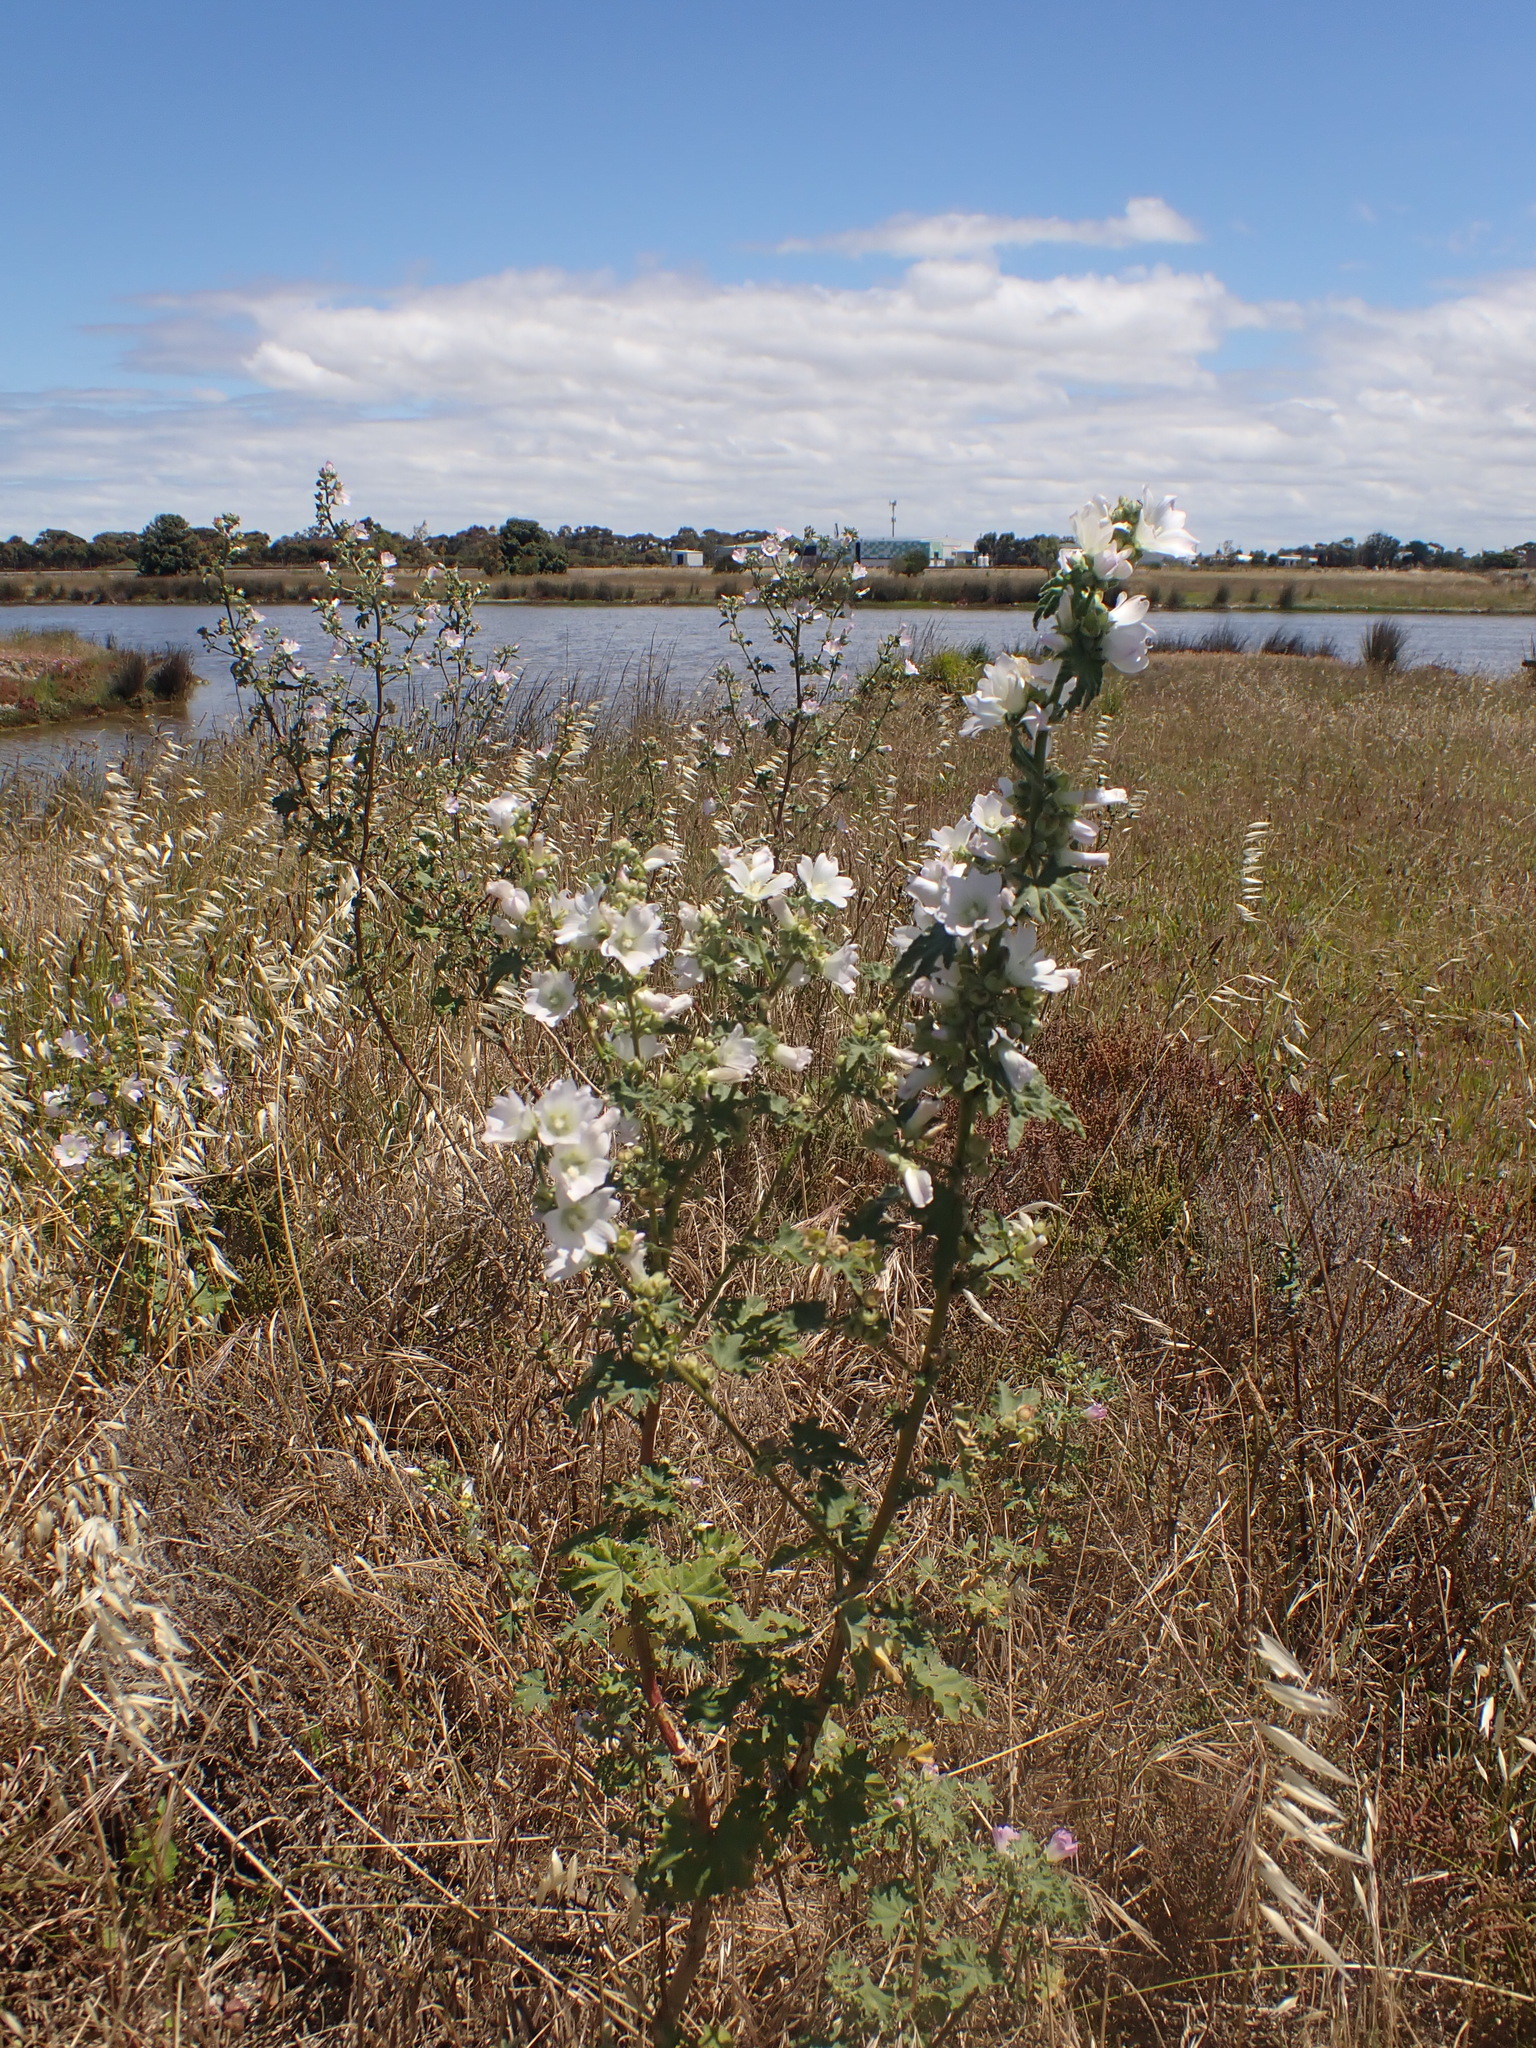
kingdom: Plantae
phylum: Tracheophyta
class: Magnoliopsida
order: Malvales
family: Malvaceae
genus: Malva
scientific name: Malva preissiana
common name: Australian-hollyhock
